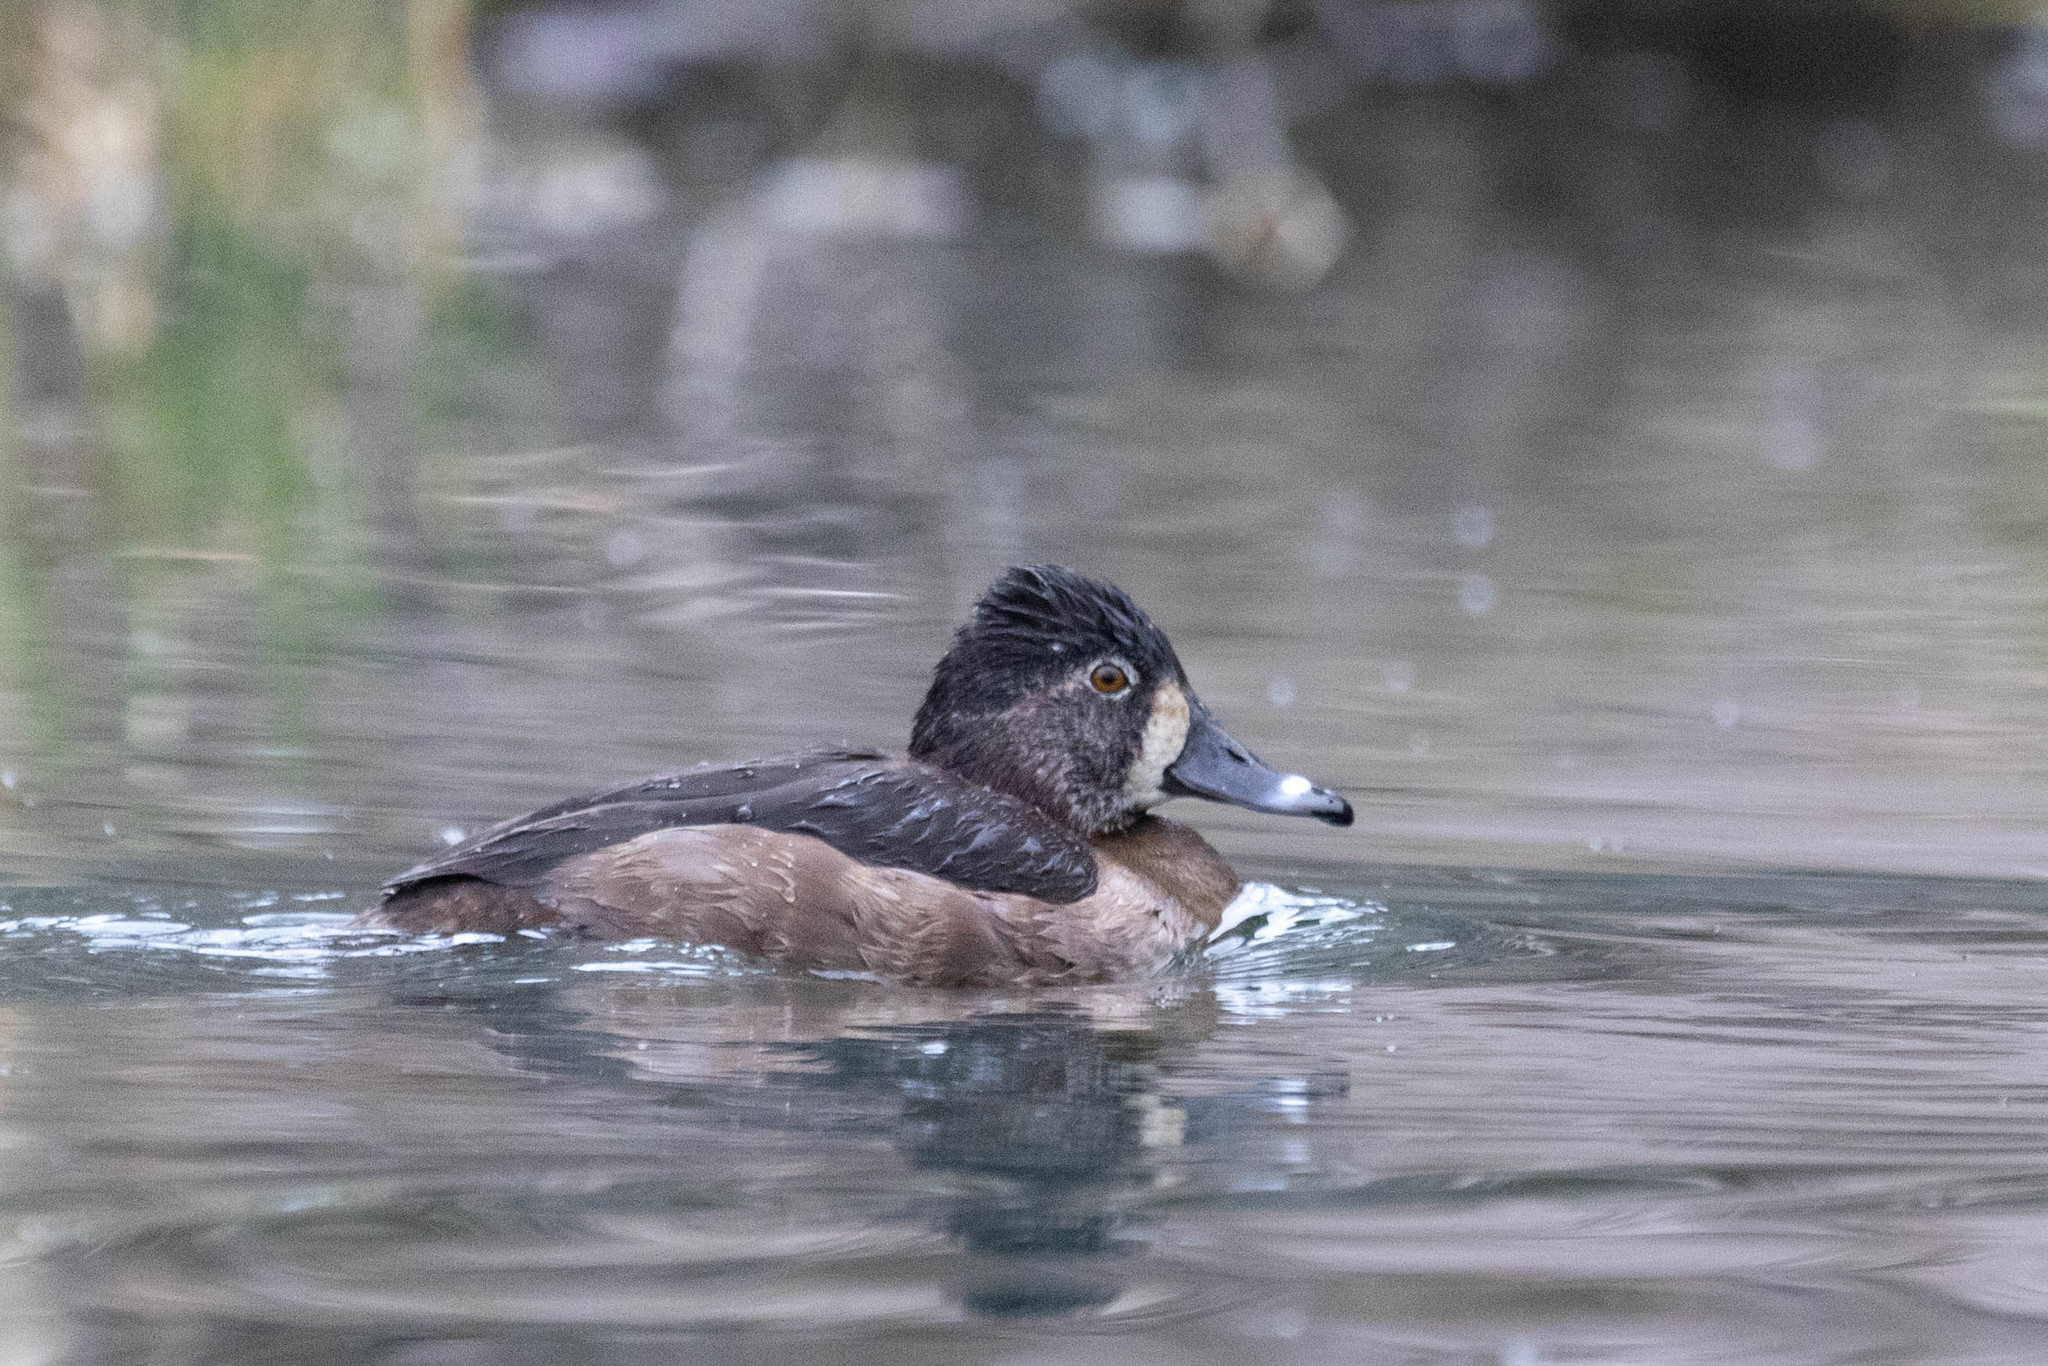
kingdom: Animalia
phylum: Chordata
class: Aves
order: Anseriformes
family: Anatidae
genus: Aythya
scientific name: Aythya collaris
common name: Ring-necked duck
